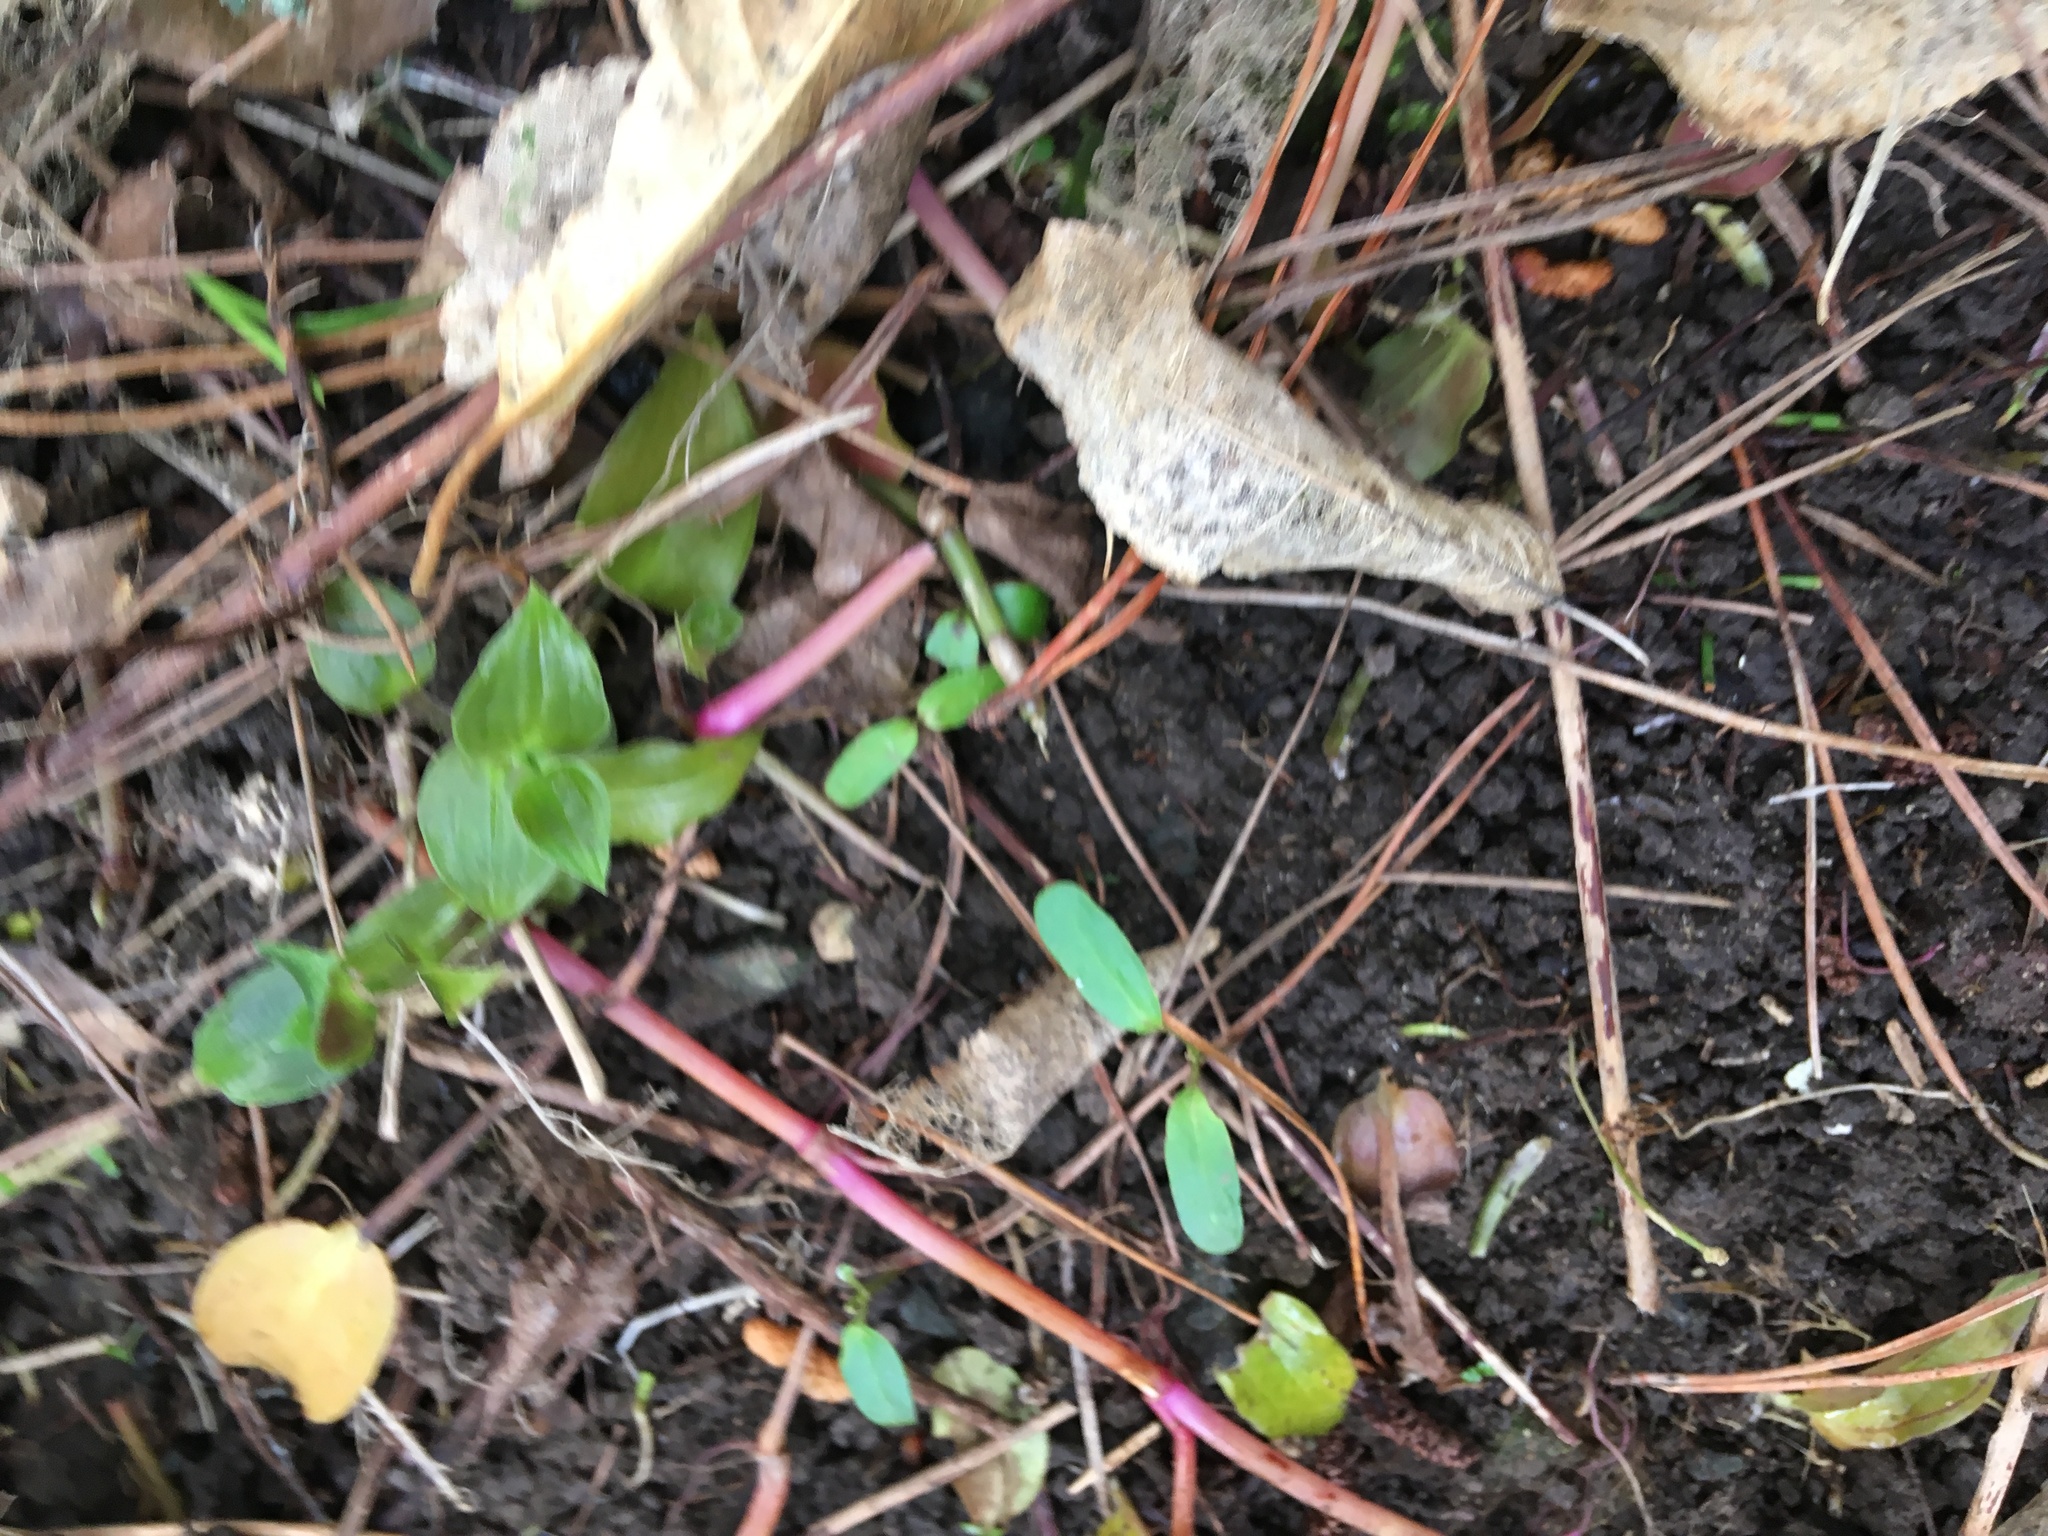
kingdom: Plantae
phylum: Tracheophyta
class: Magnoliopsida
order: Gentianales
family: Apocynaceae
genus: Araujia
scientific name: Araujia sericifera
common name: White bladderflower
